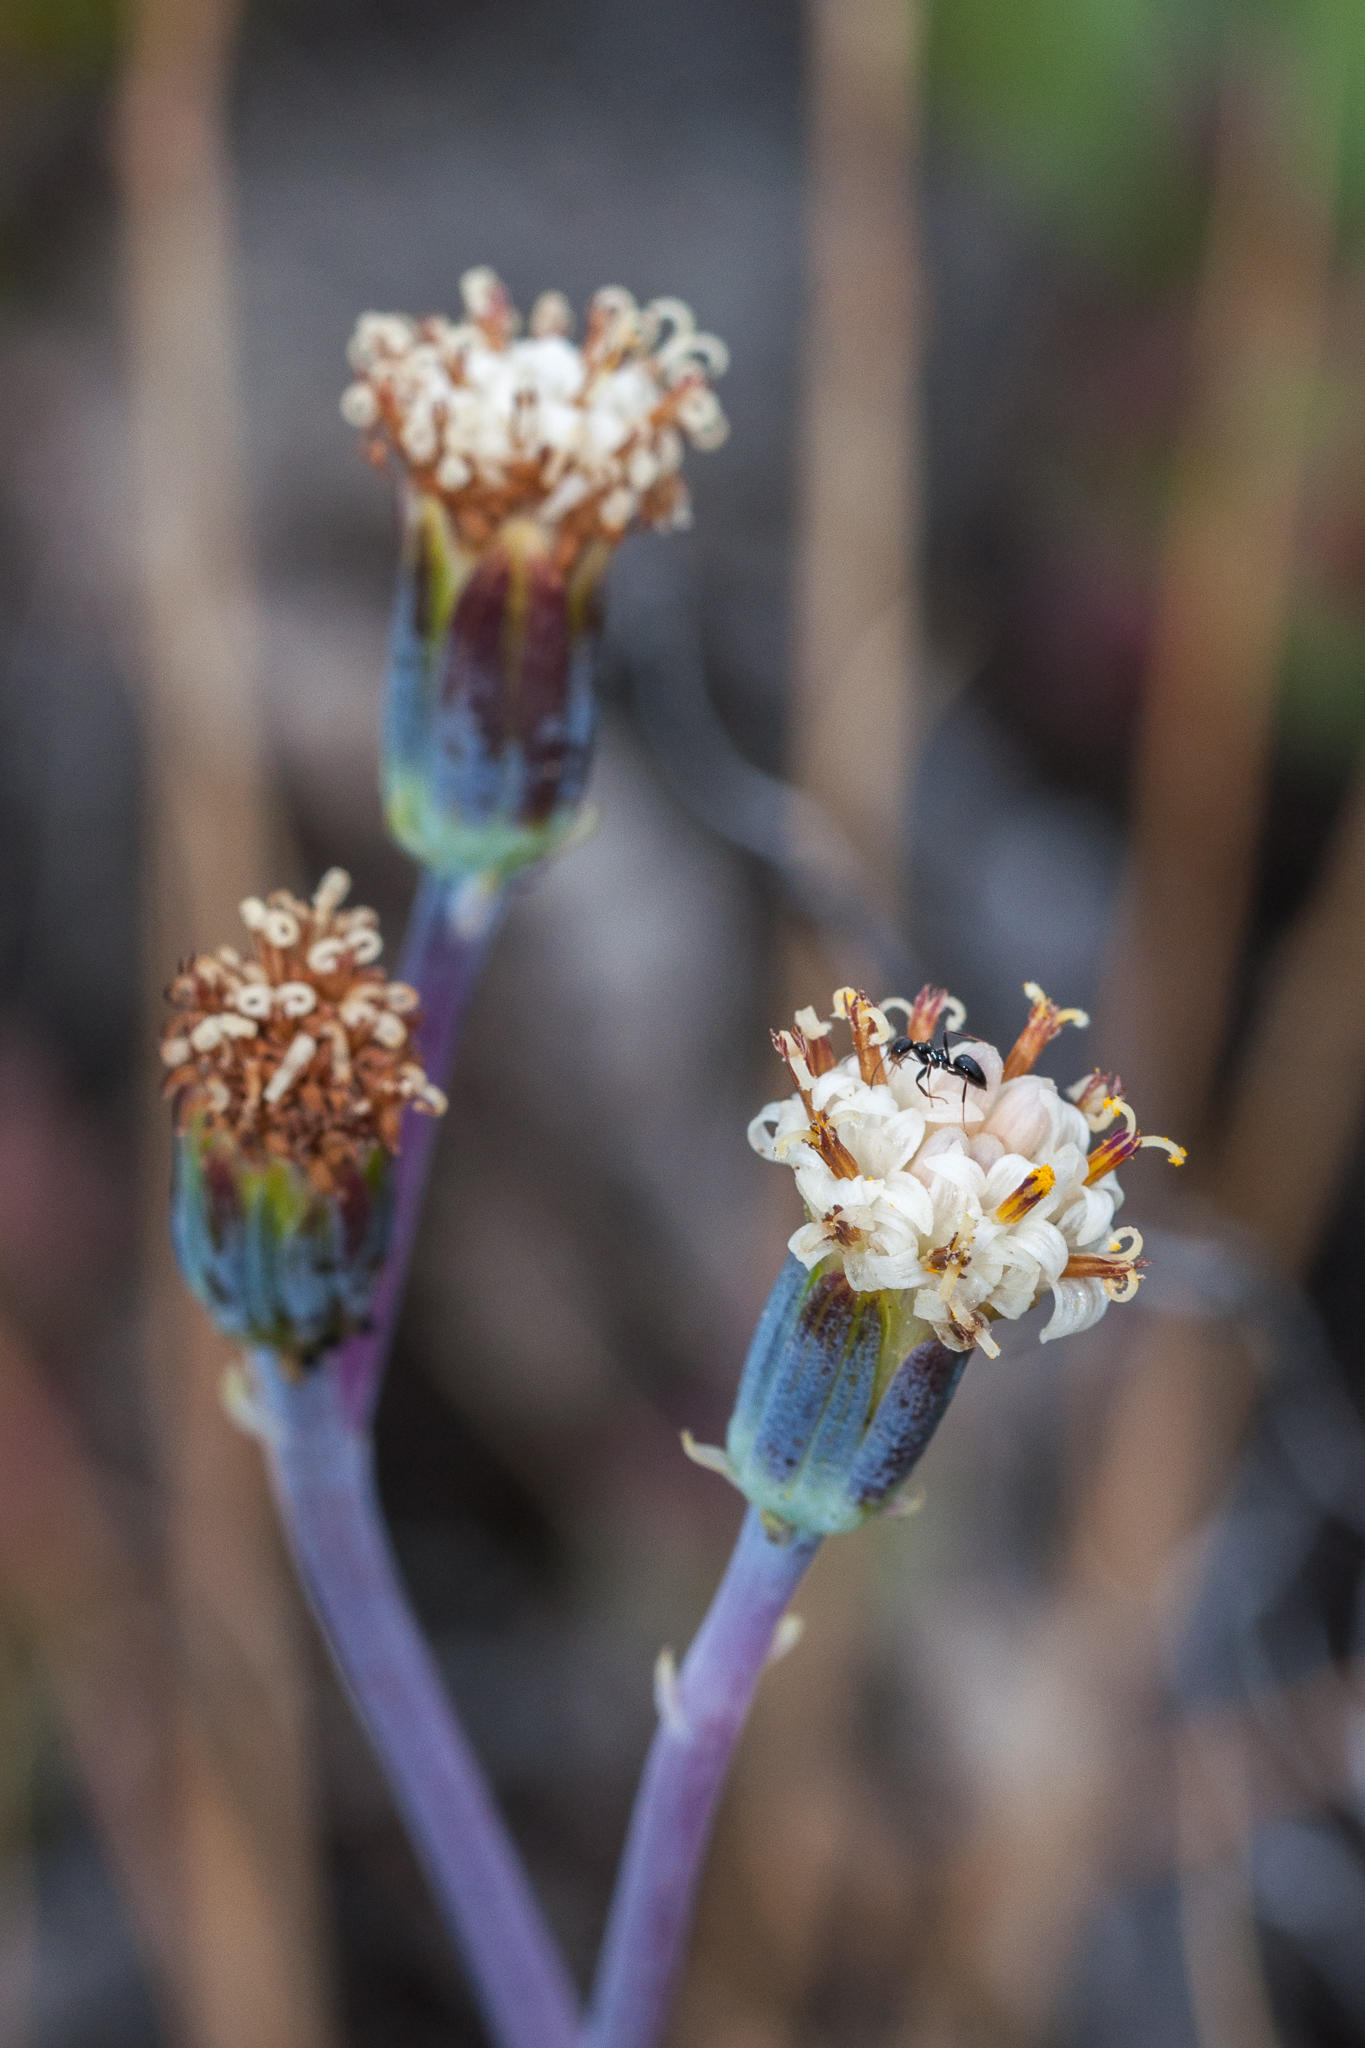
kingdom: Animalia
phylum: Arthropoda
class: Insecta
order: Hymenoptera
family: Formicidae
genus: Lepisiota
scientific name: Lepisiota capensis
